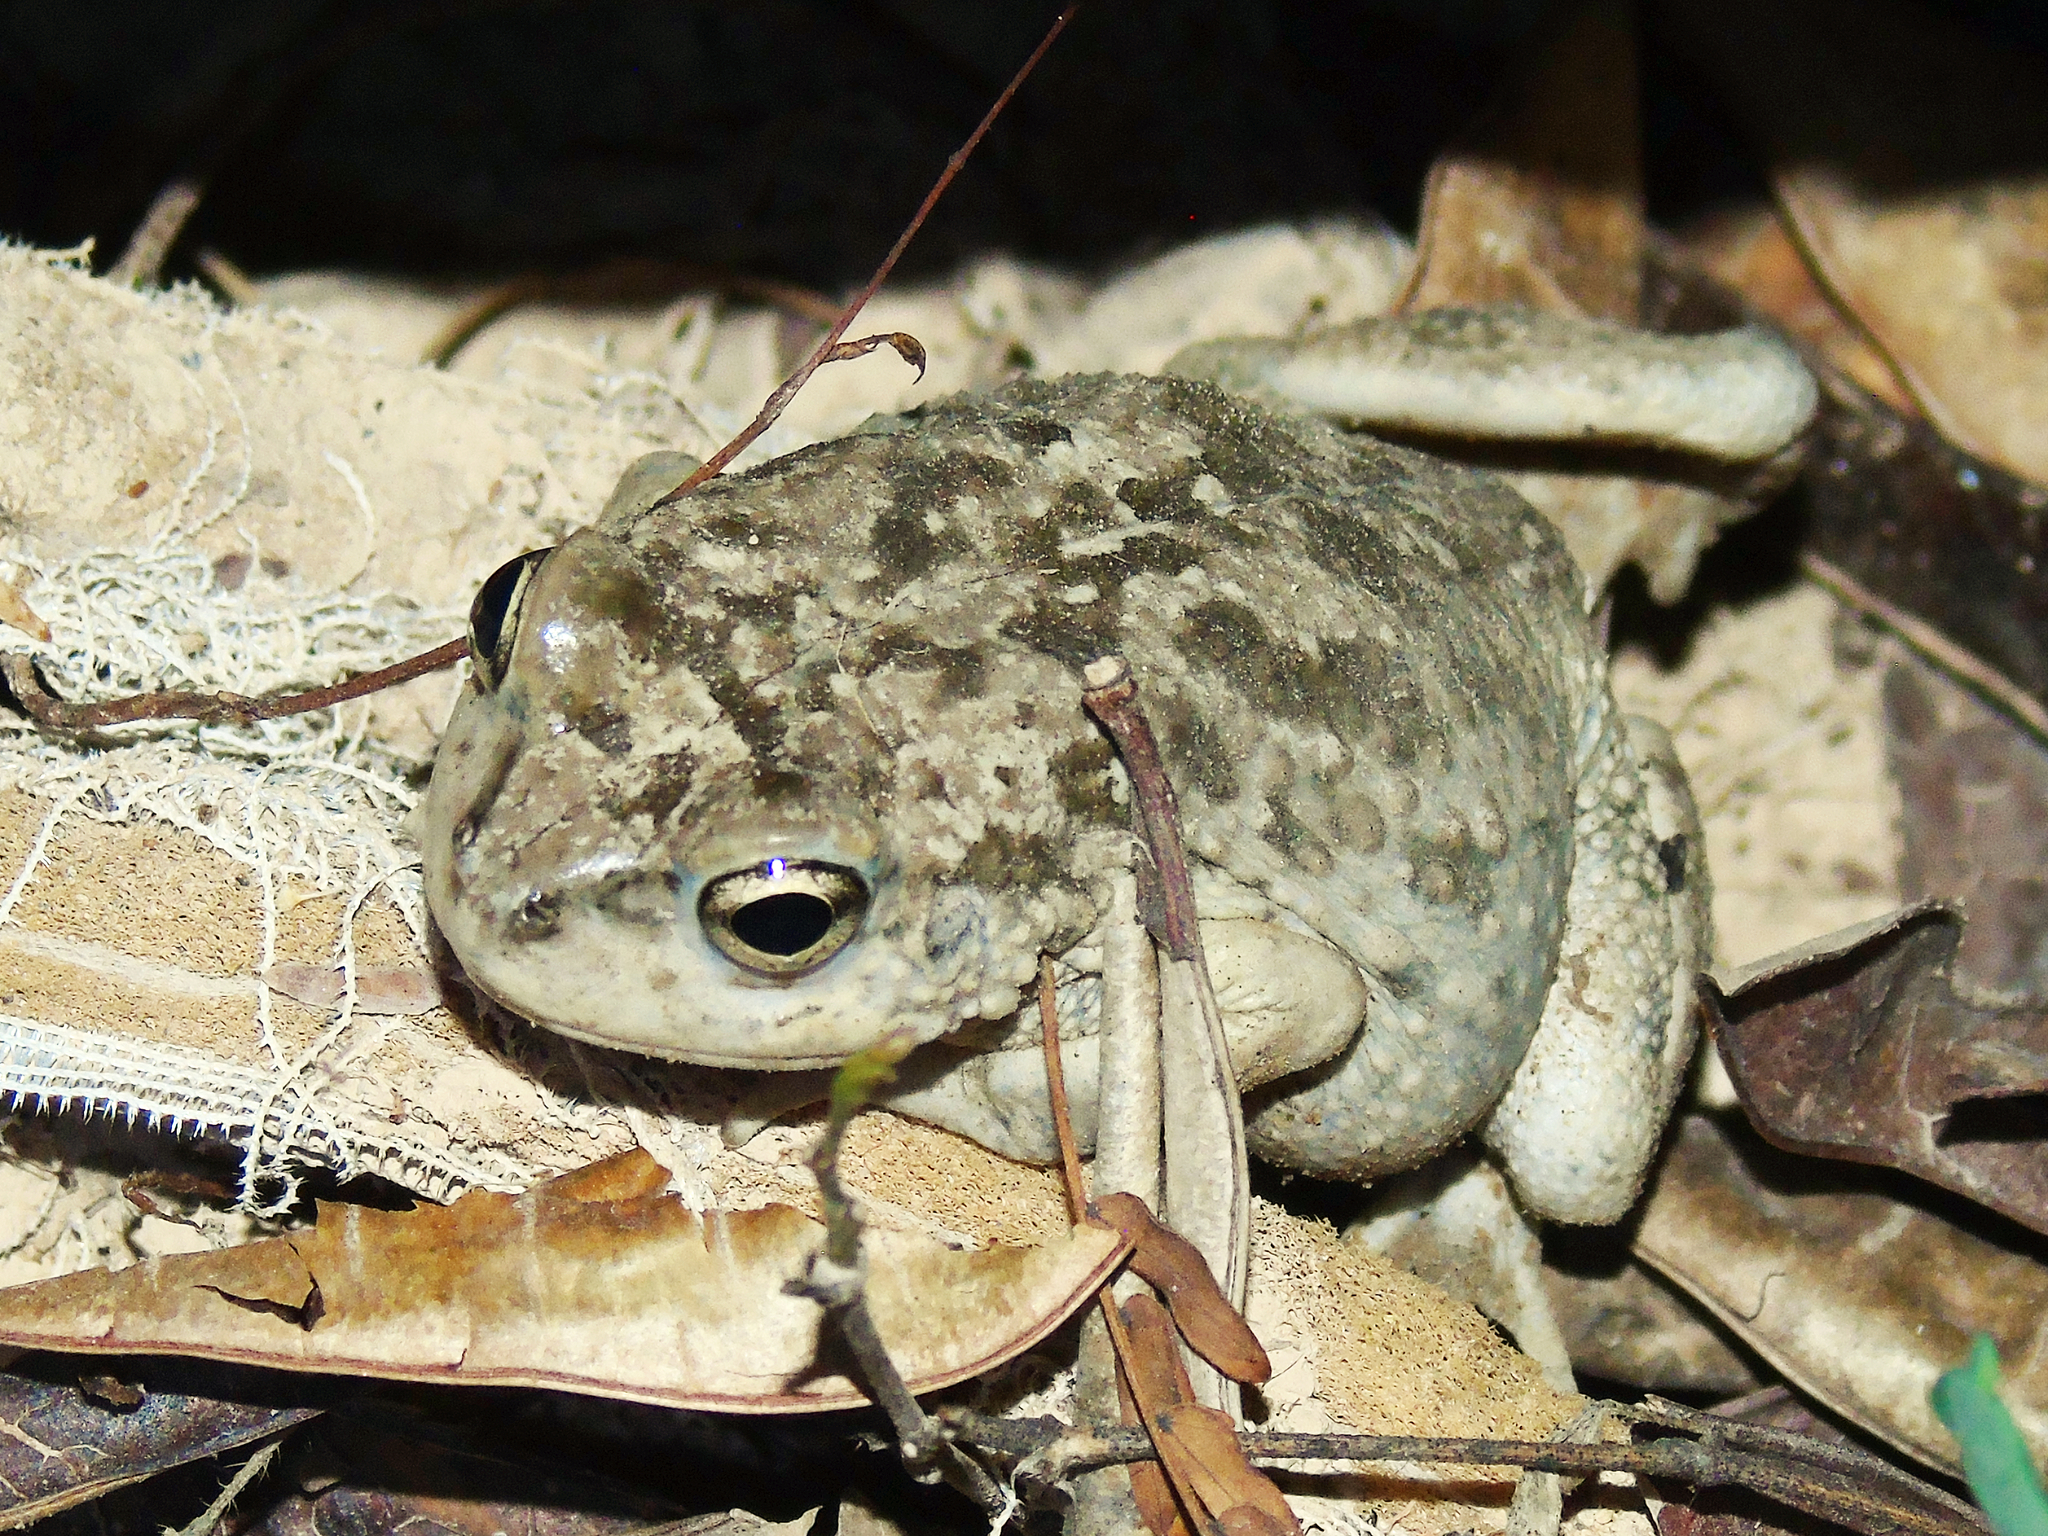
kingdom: Animalia
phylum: Chordata
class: Amphibia
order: Anura
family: Bufonidae
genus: Sclerophrys
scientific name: Sclerophrys arabica
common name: Arabian toad
